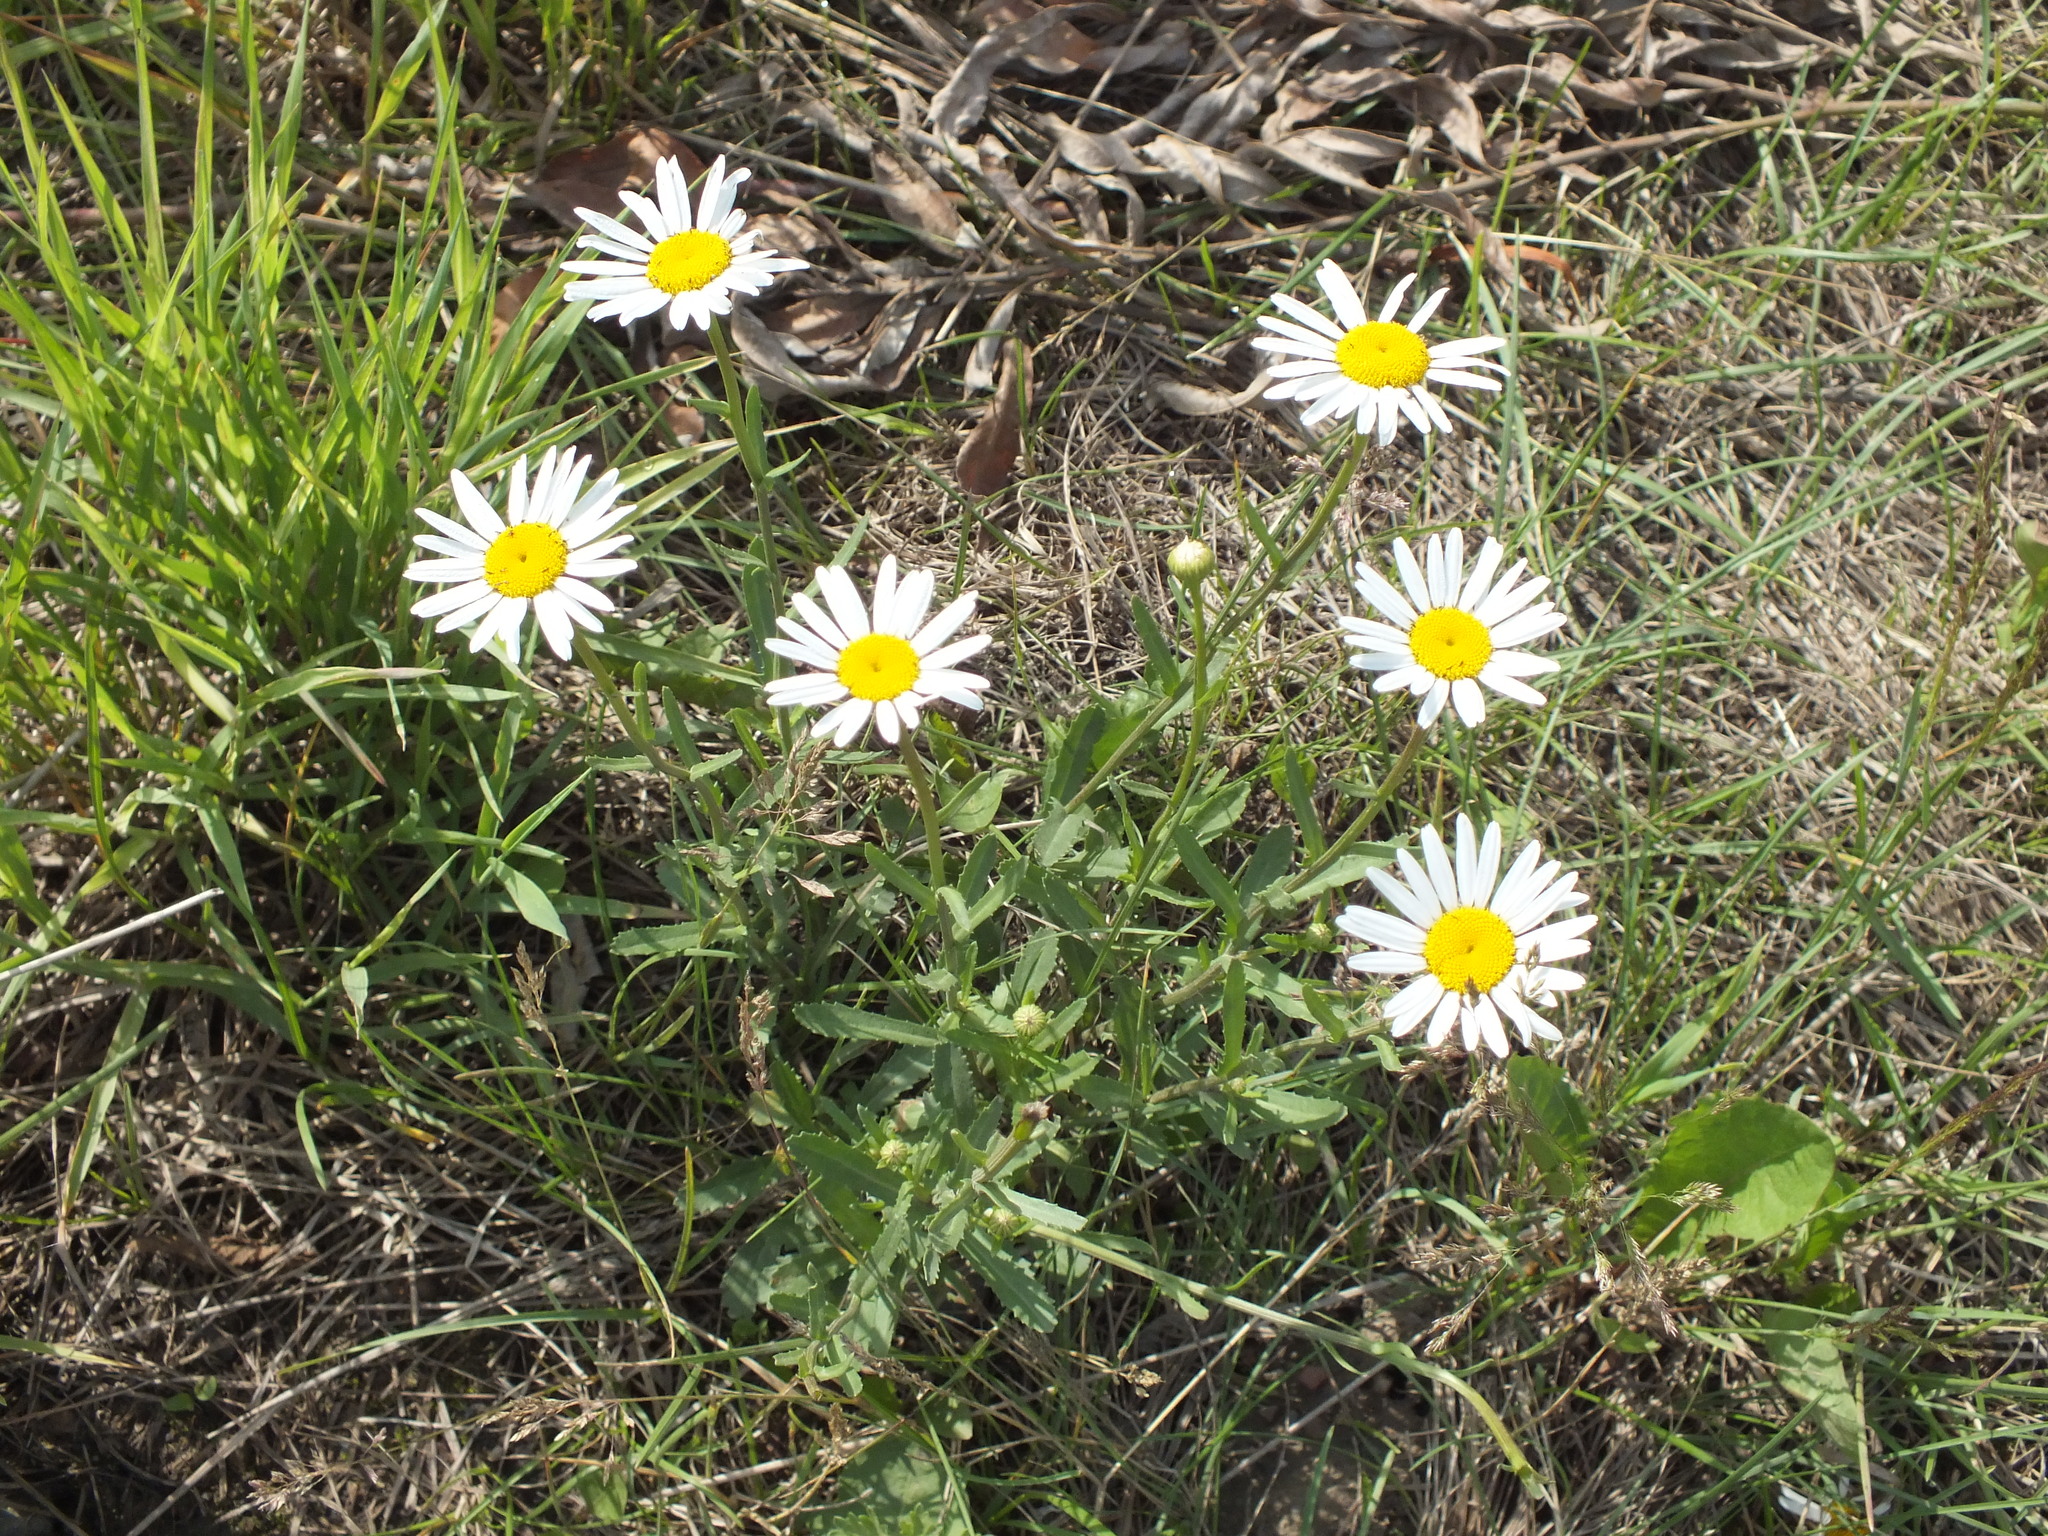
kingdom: Plantae
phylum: Tracheophyta
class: Magnoliopsida
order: Asterales
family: Asteraceae
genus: Leucanthemum
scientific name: Leucanthemum vulgare
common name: Oxeye daisy
